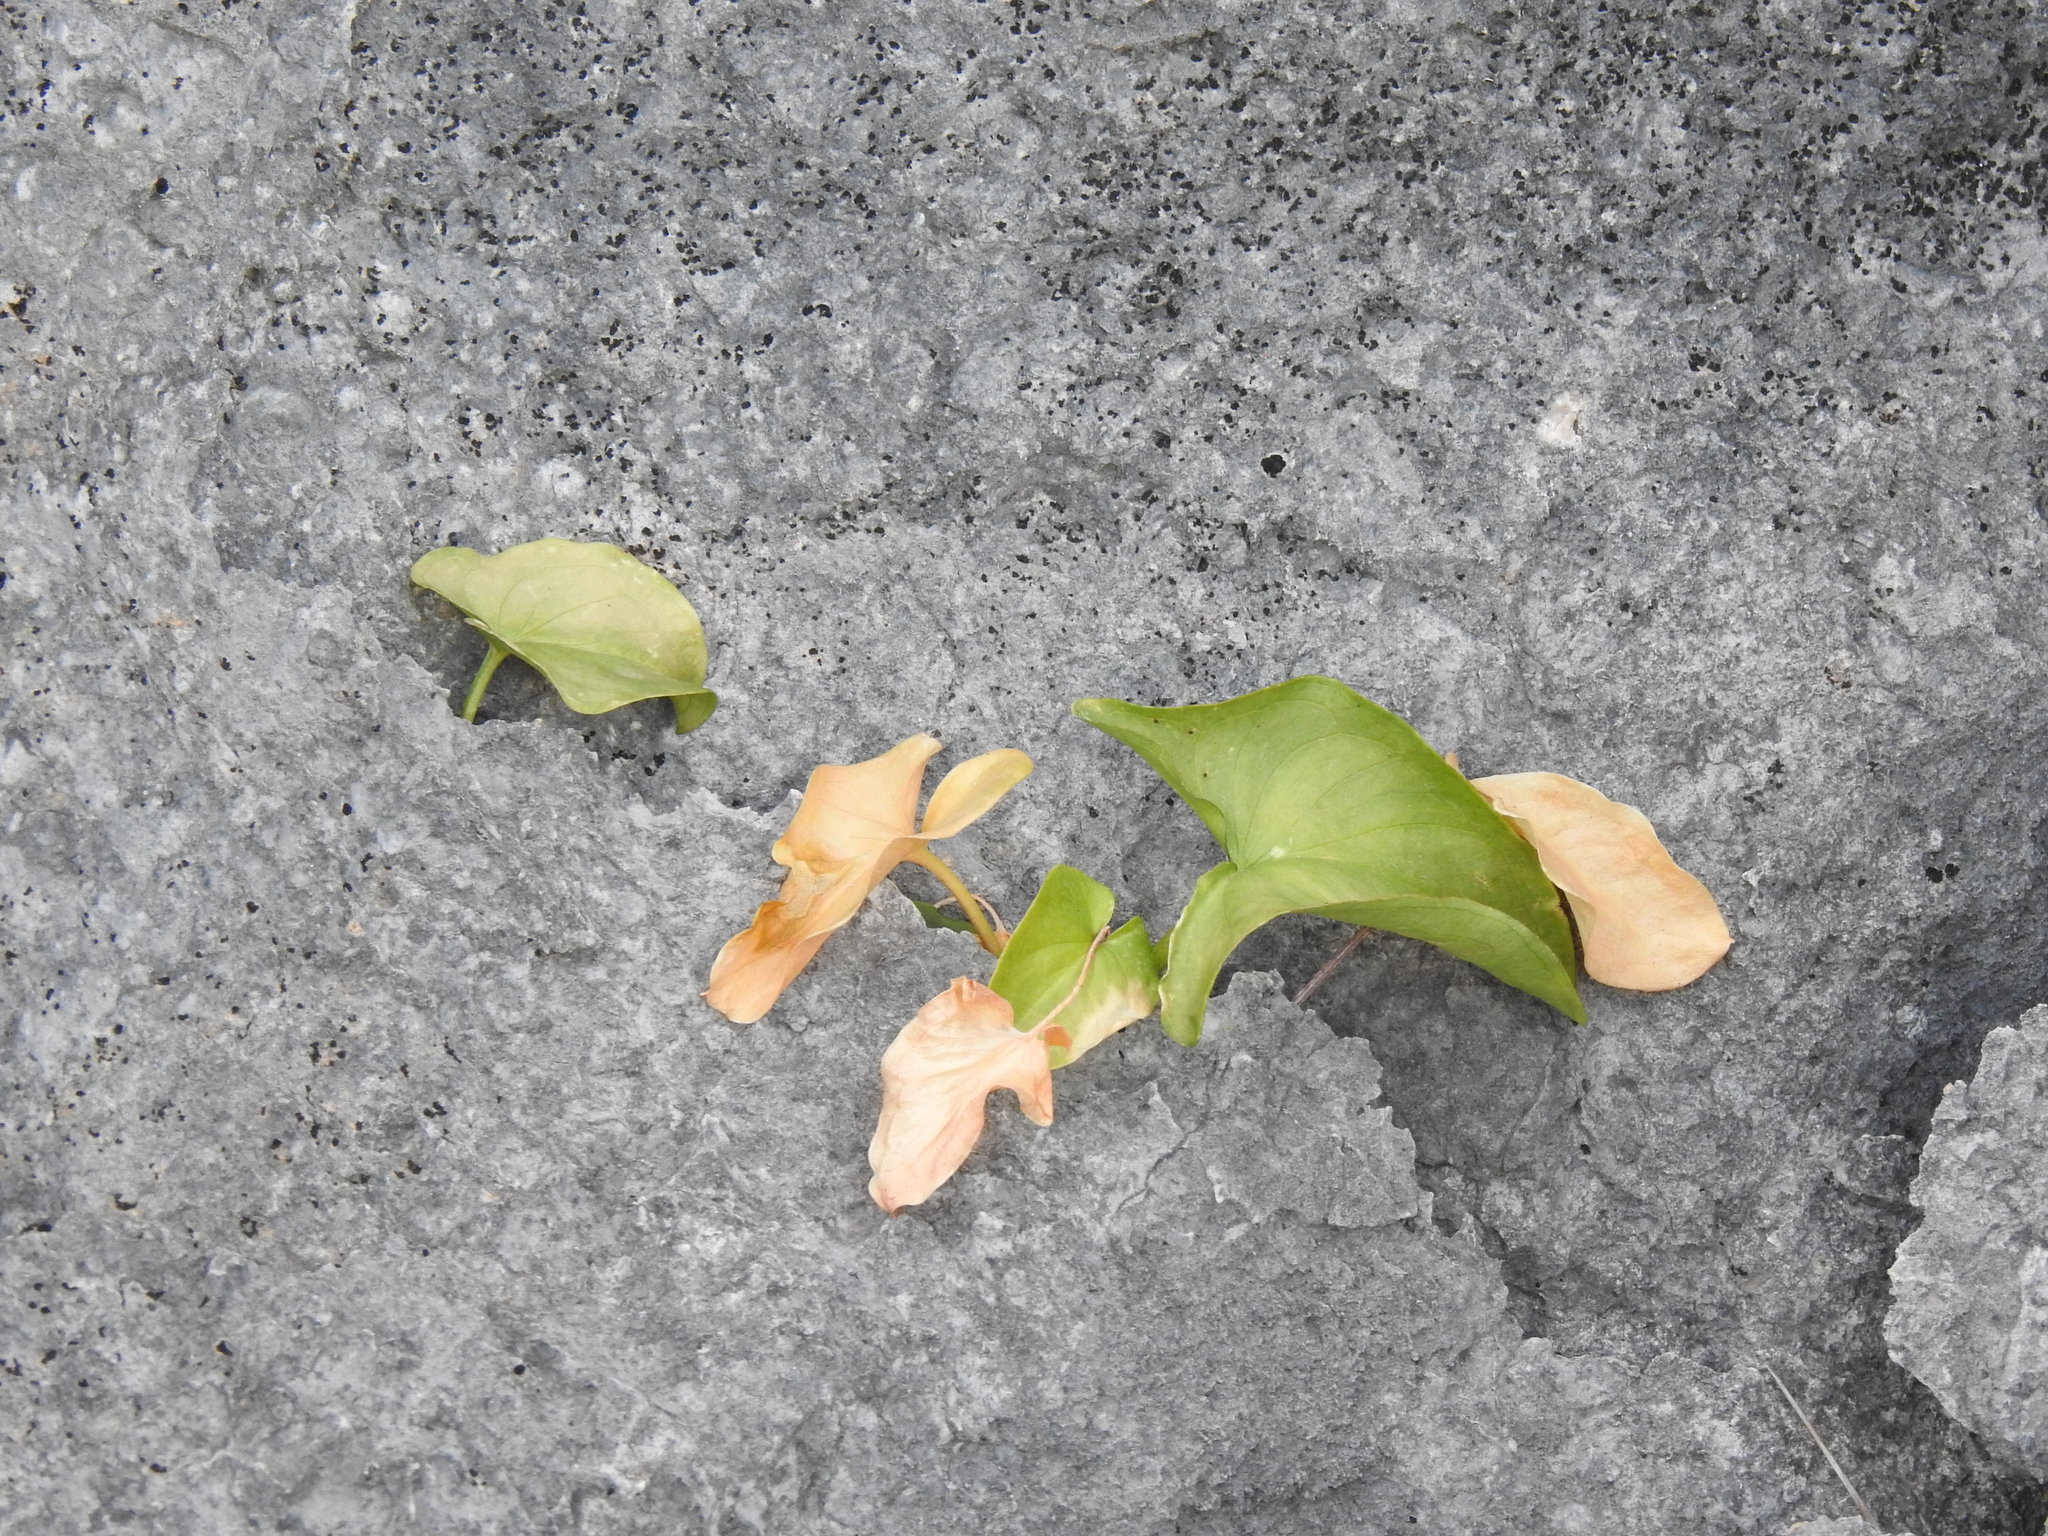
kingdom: Plantae
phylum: Tracheophyta
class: Liliopsida
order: Alismatales
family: Araceae
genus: Arisarum
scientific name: Arisarum simorrhinum
